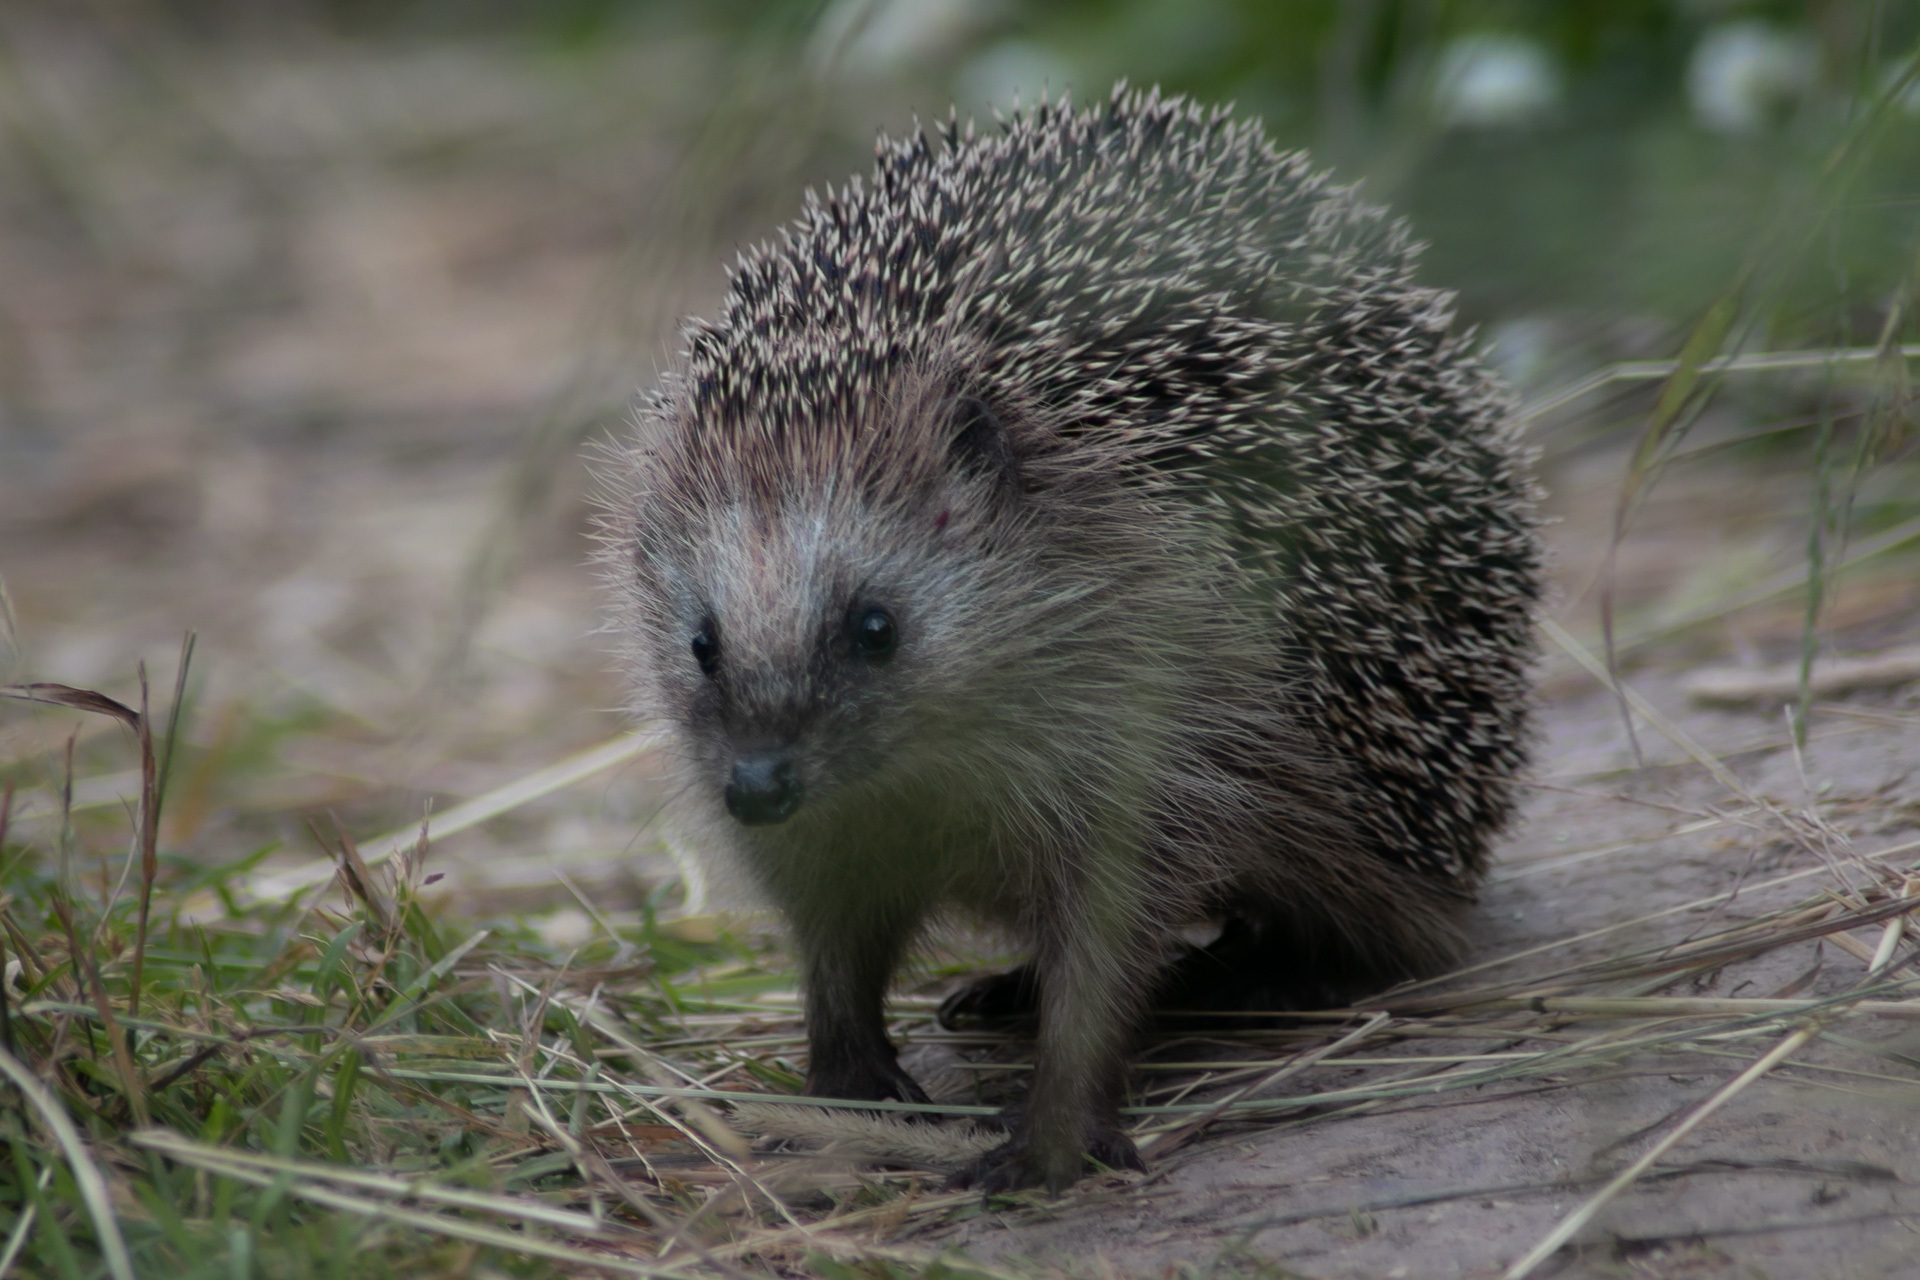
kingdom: Animalia
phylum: Chordata
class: Mammalia
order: Erinaceomorpha
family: Erinaceidae
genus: Erinaceus
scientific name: Erinaceus europaeus
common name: West european hedgehog
